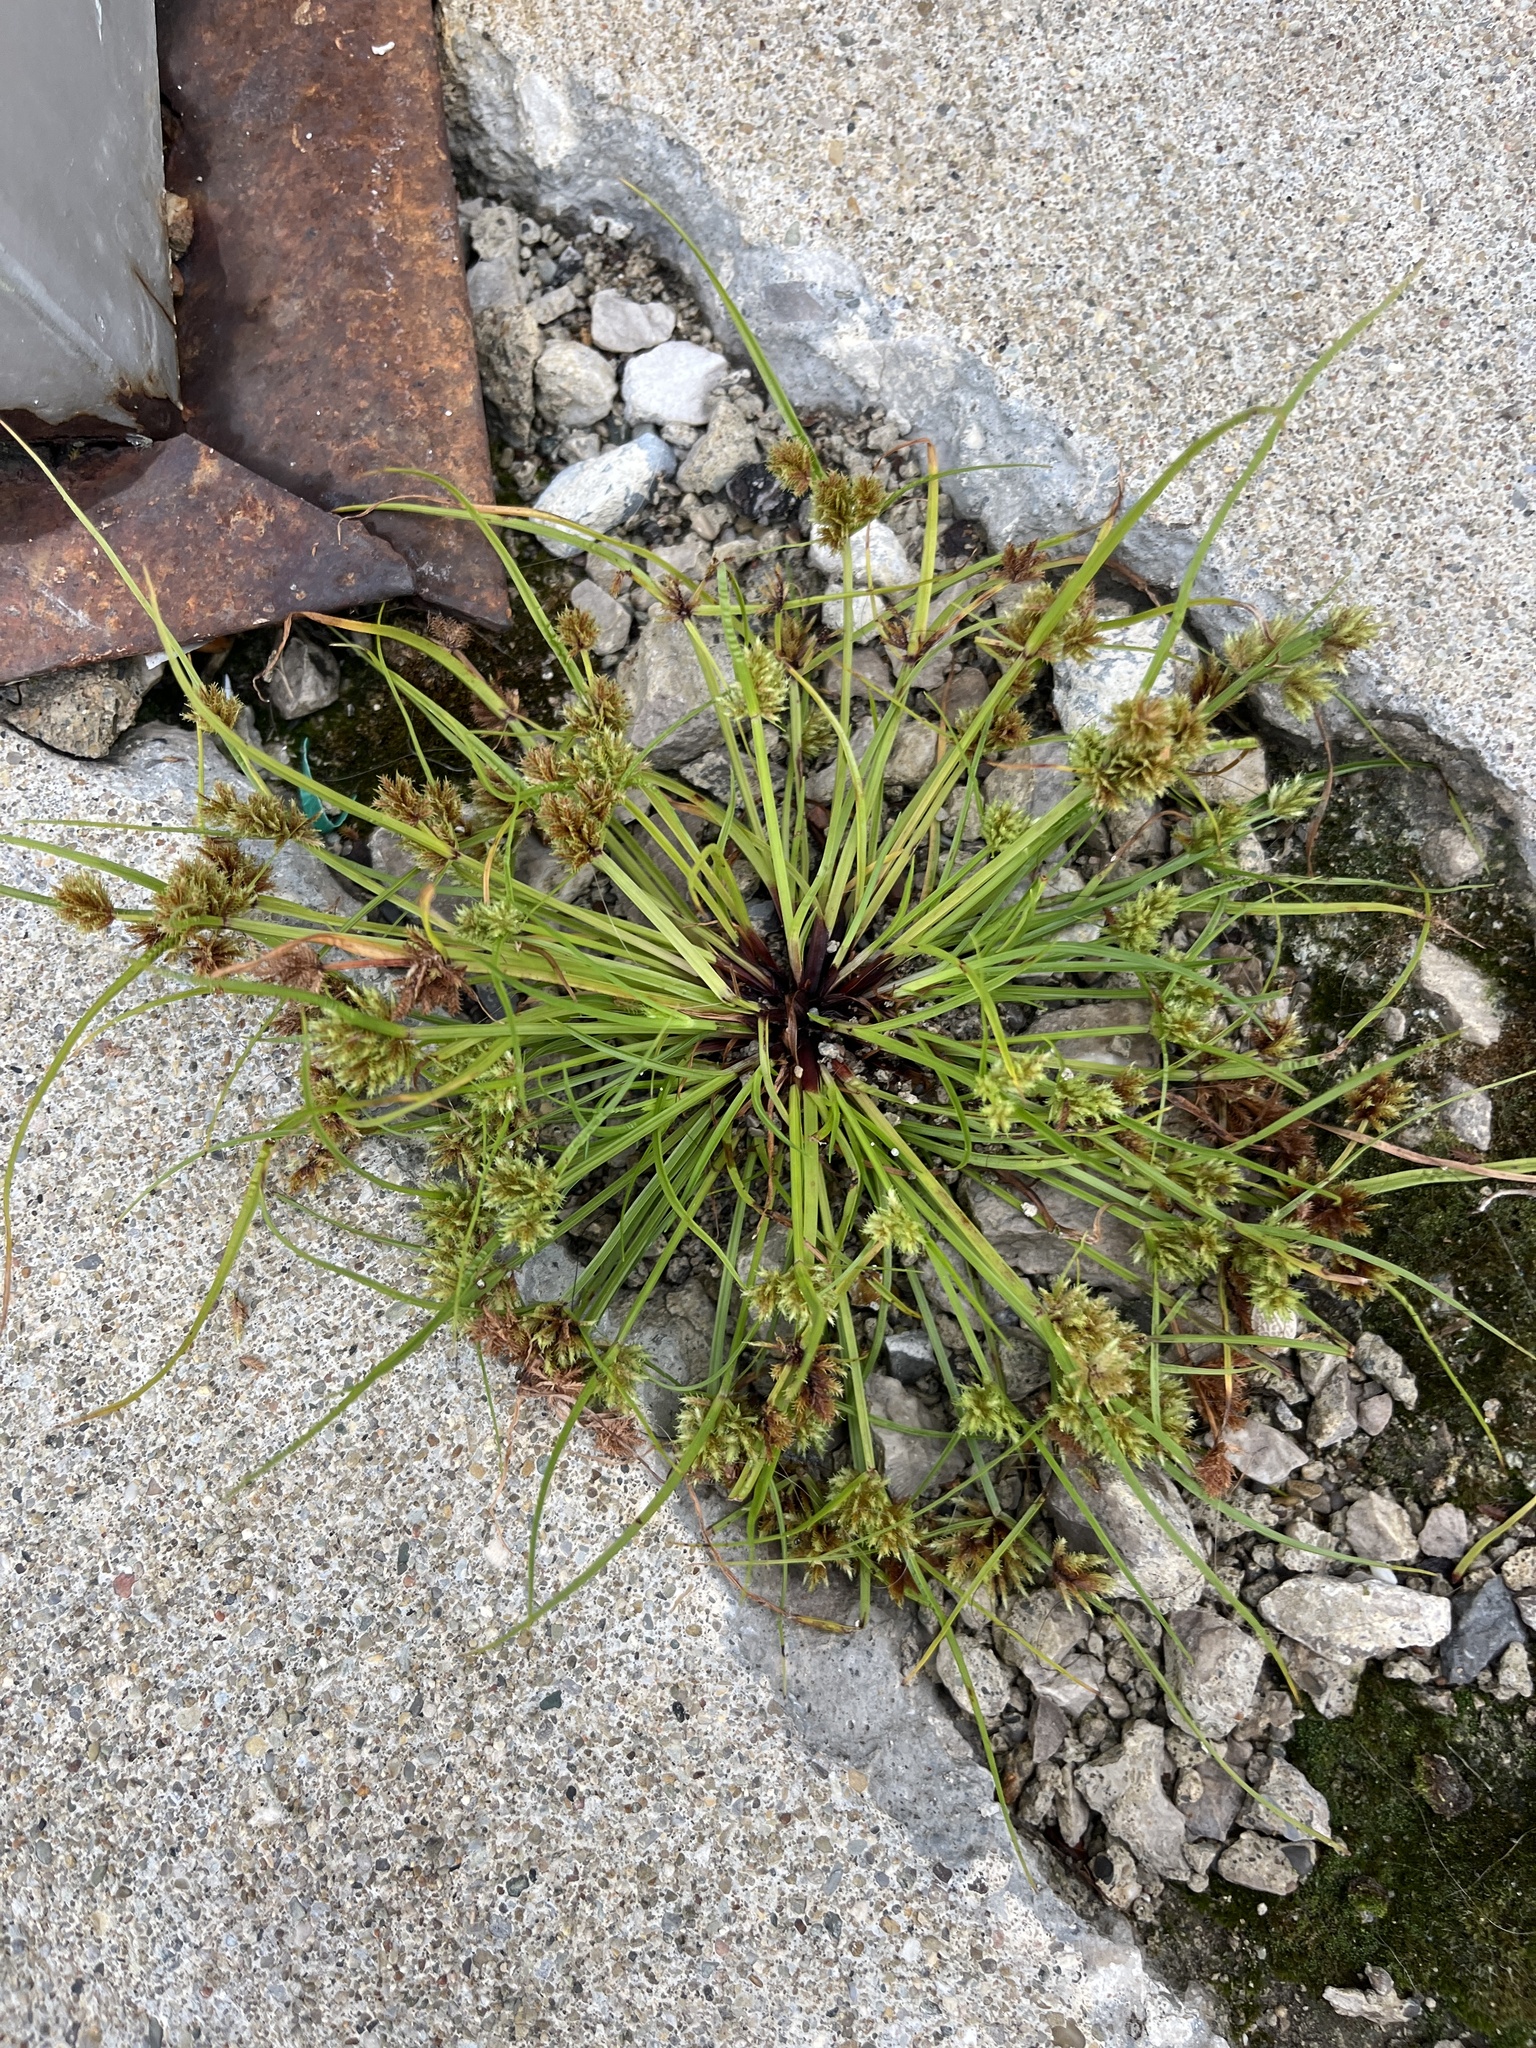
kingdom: Plantae
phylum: Tracheophyta
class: Liliopsida
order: Poales
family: Cyperaceae
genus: Cyperus
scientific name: Cyperus squarrosus
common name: Awned cyperus
